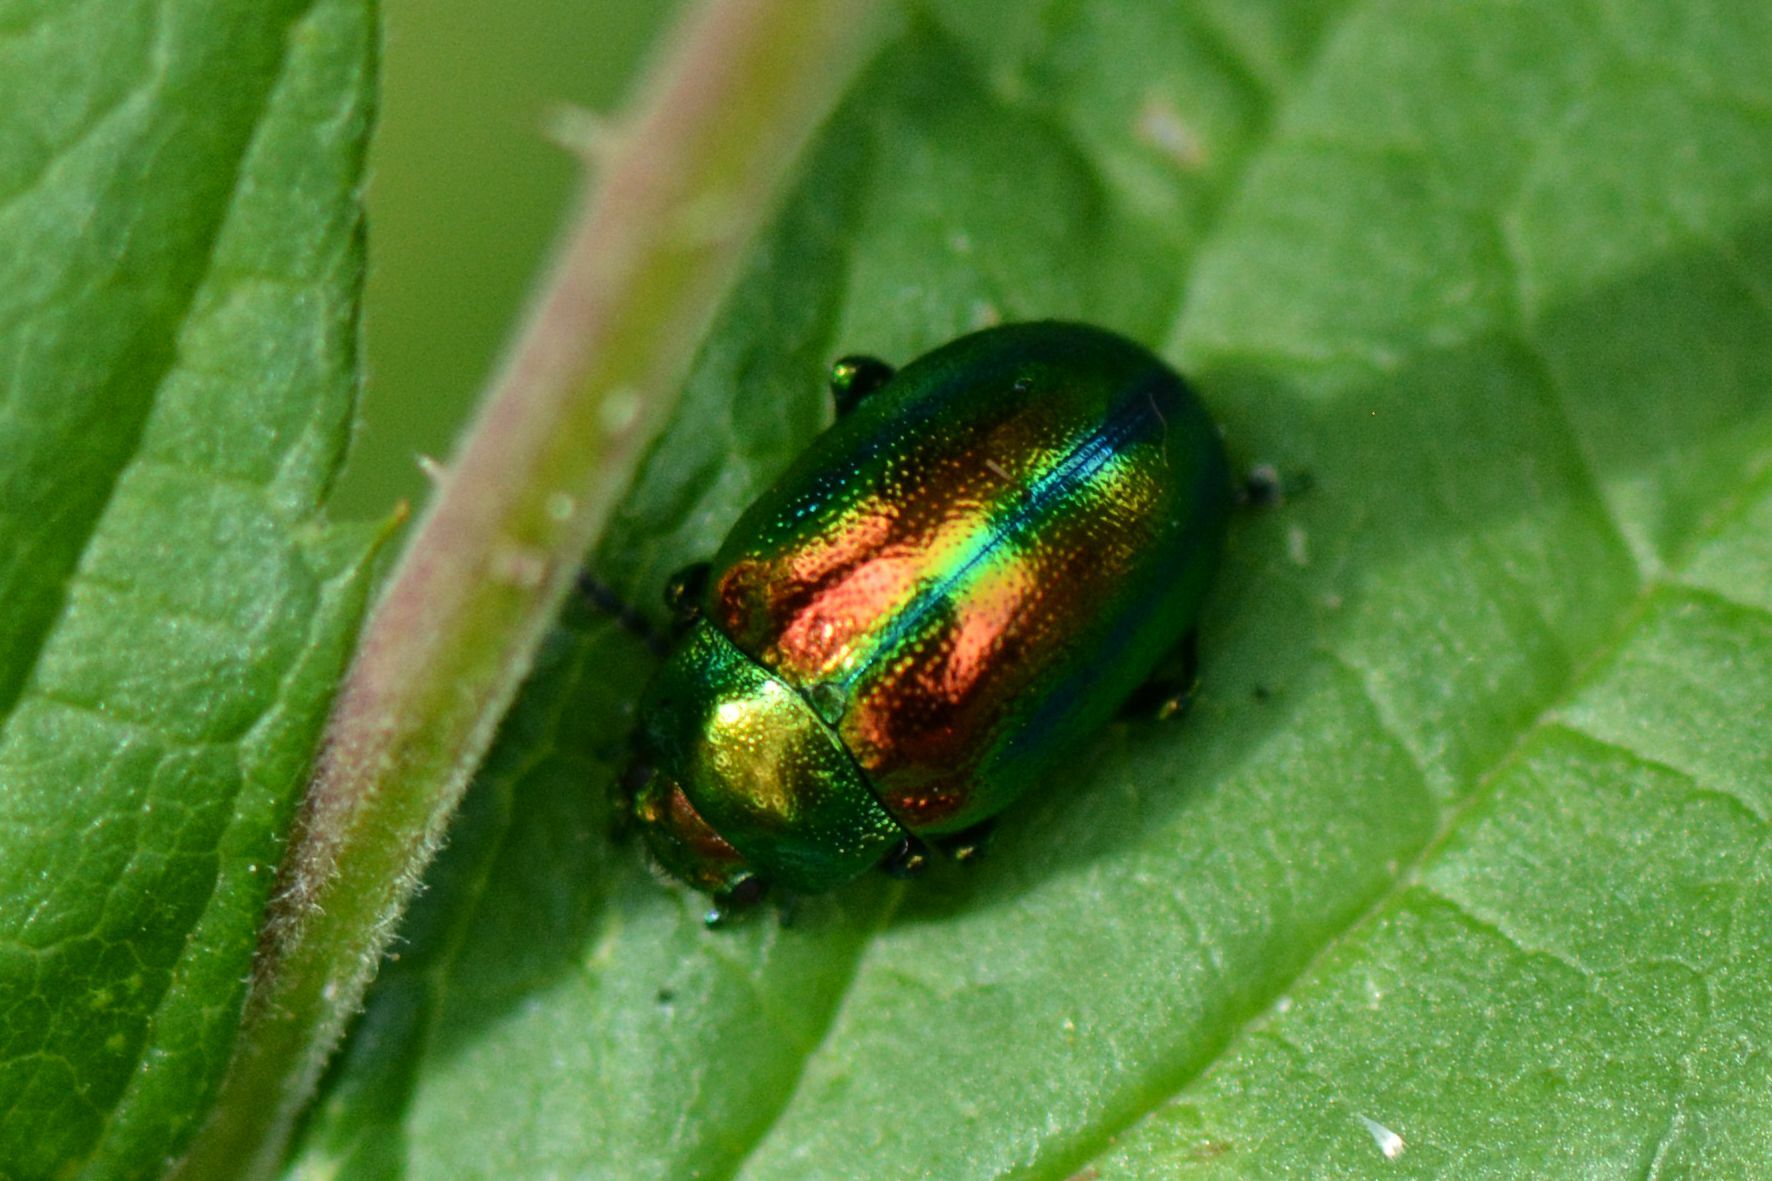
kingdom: Animalia
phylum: Arthropoda
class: Insecta
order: Coleoptera
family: Chrysomelidae
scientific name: Chrysomelidae
